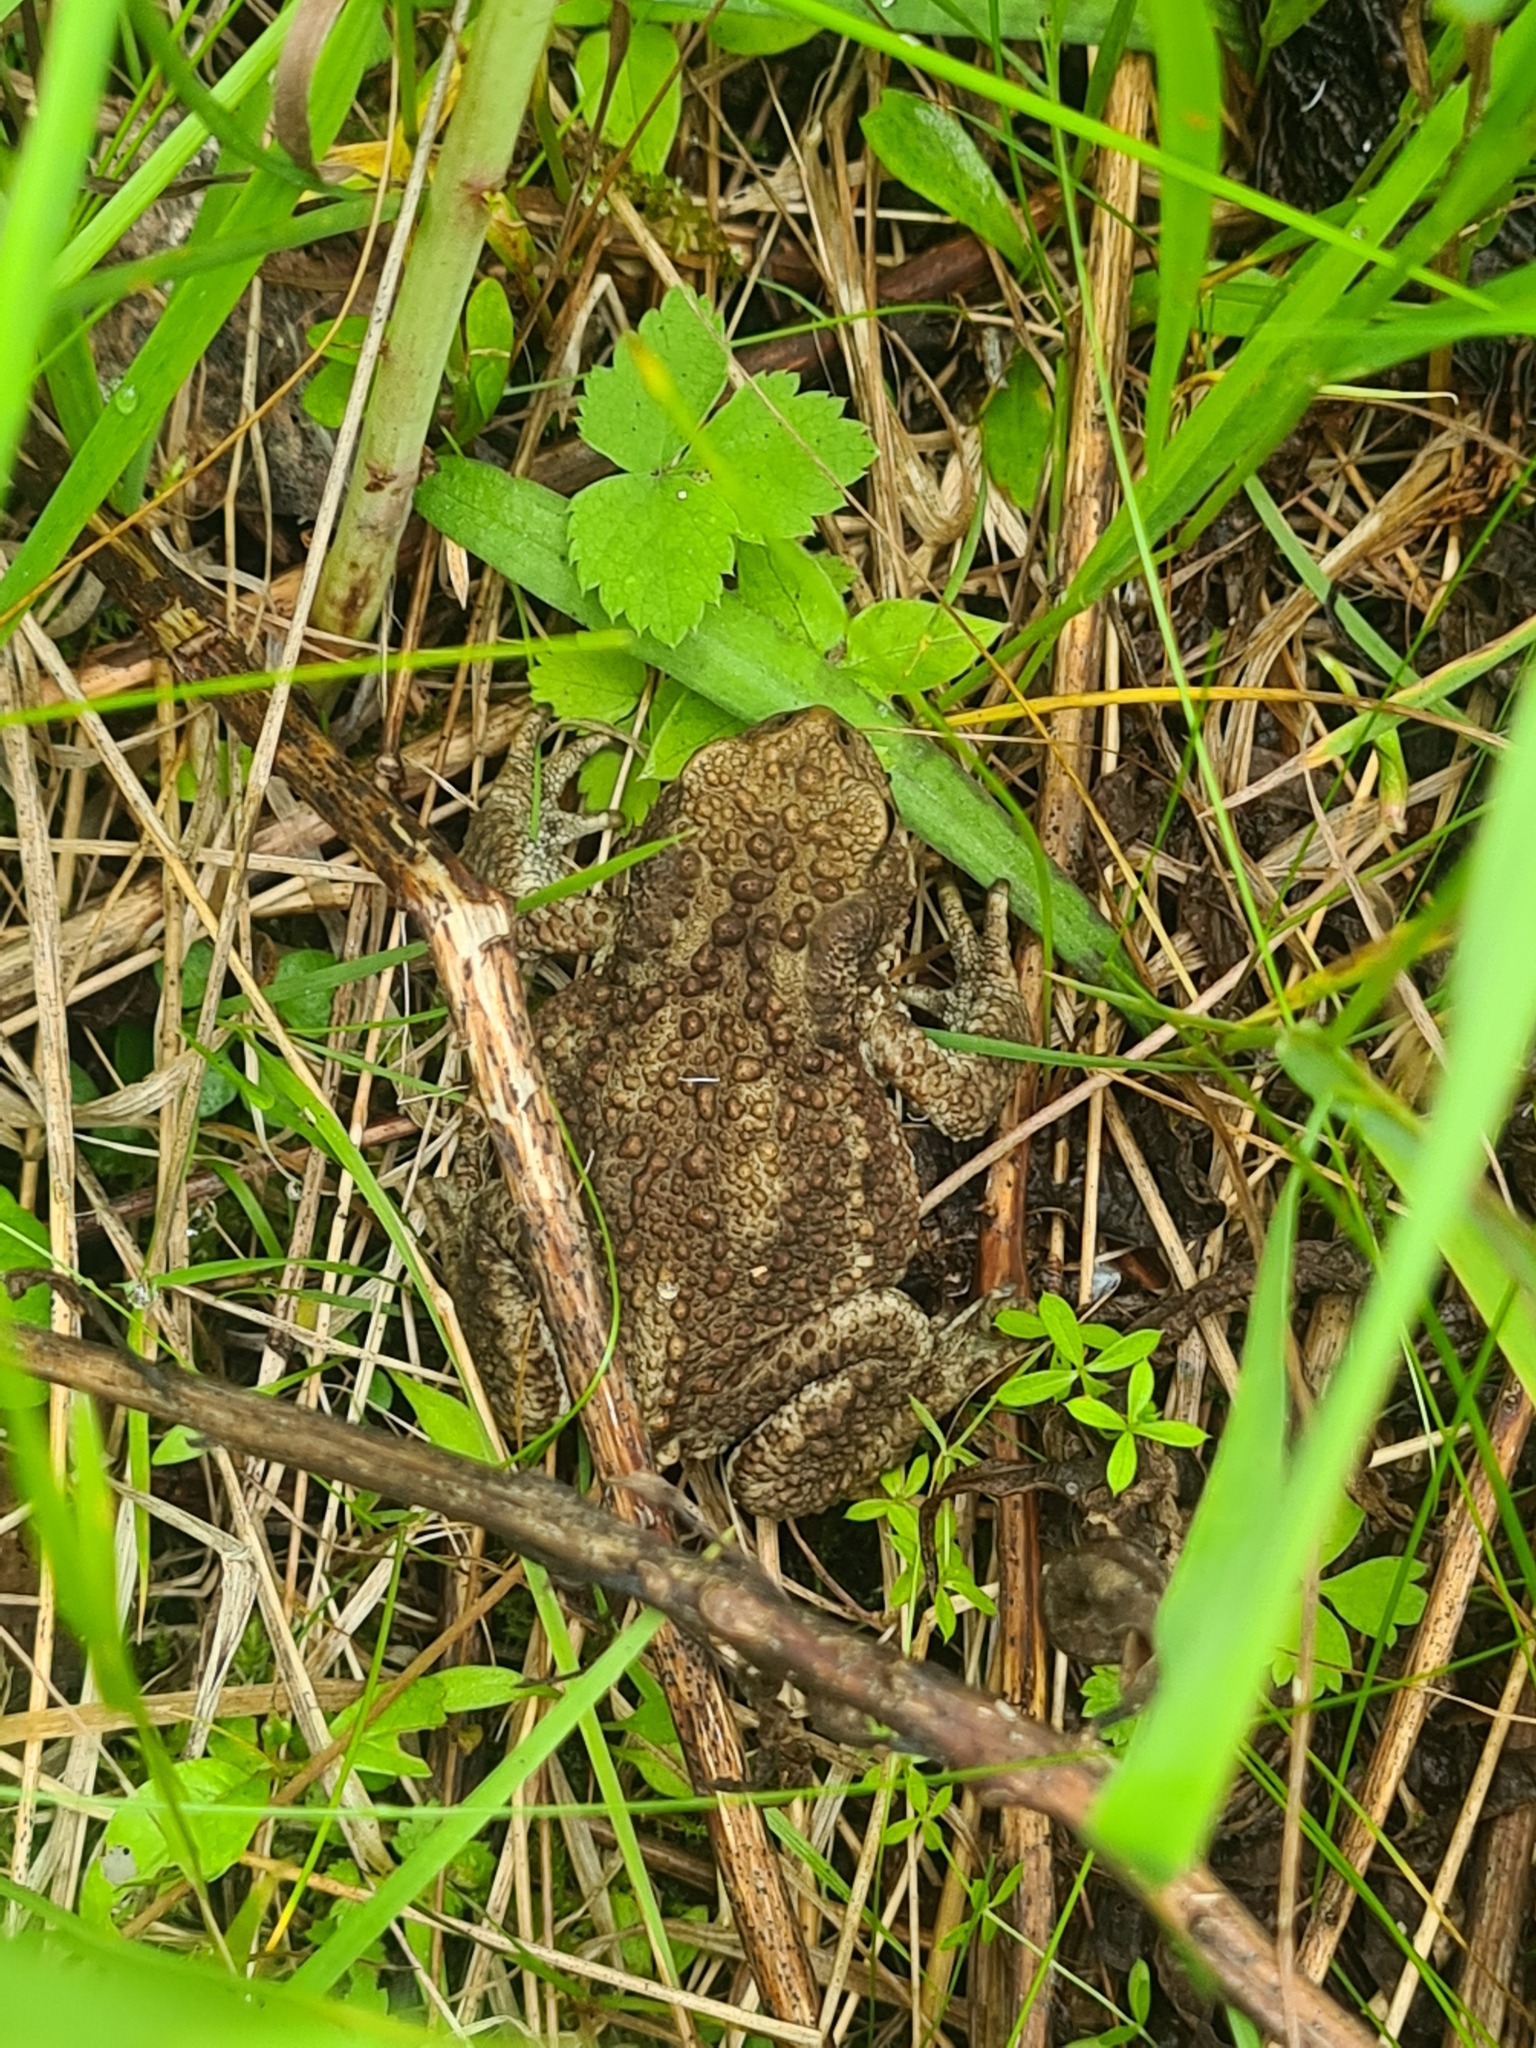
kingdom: Animalia
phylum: Chordata
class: Amphibia
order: Anura
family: Bufonidae
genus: Bufo
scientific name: Bufo bufo
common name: Common toad
